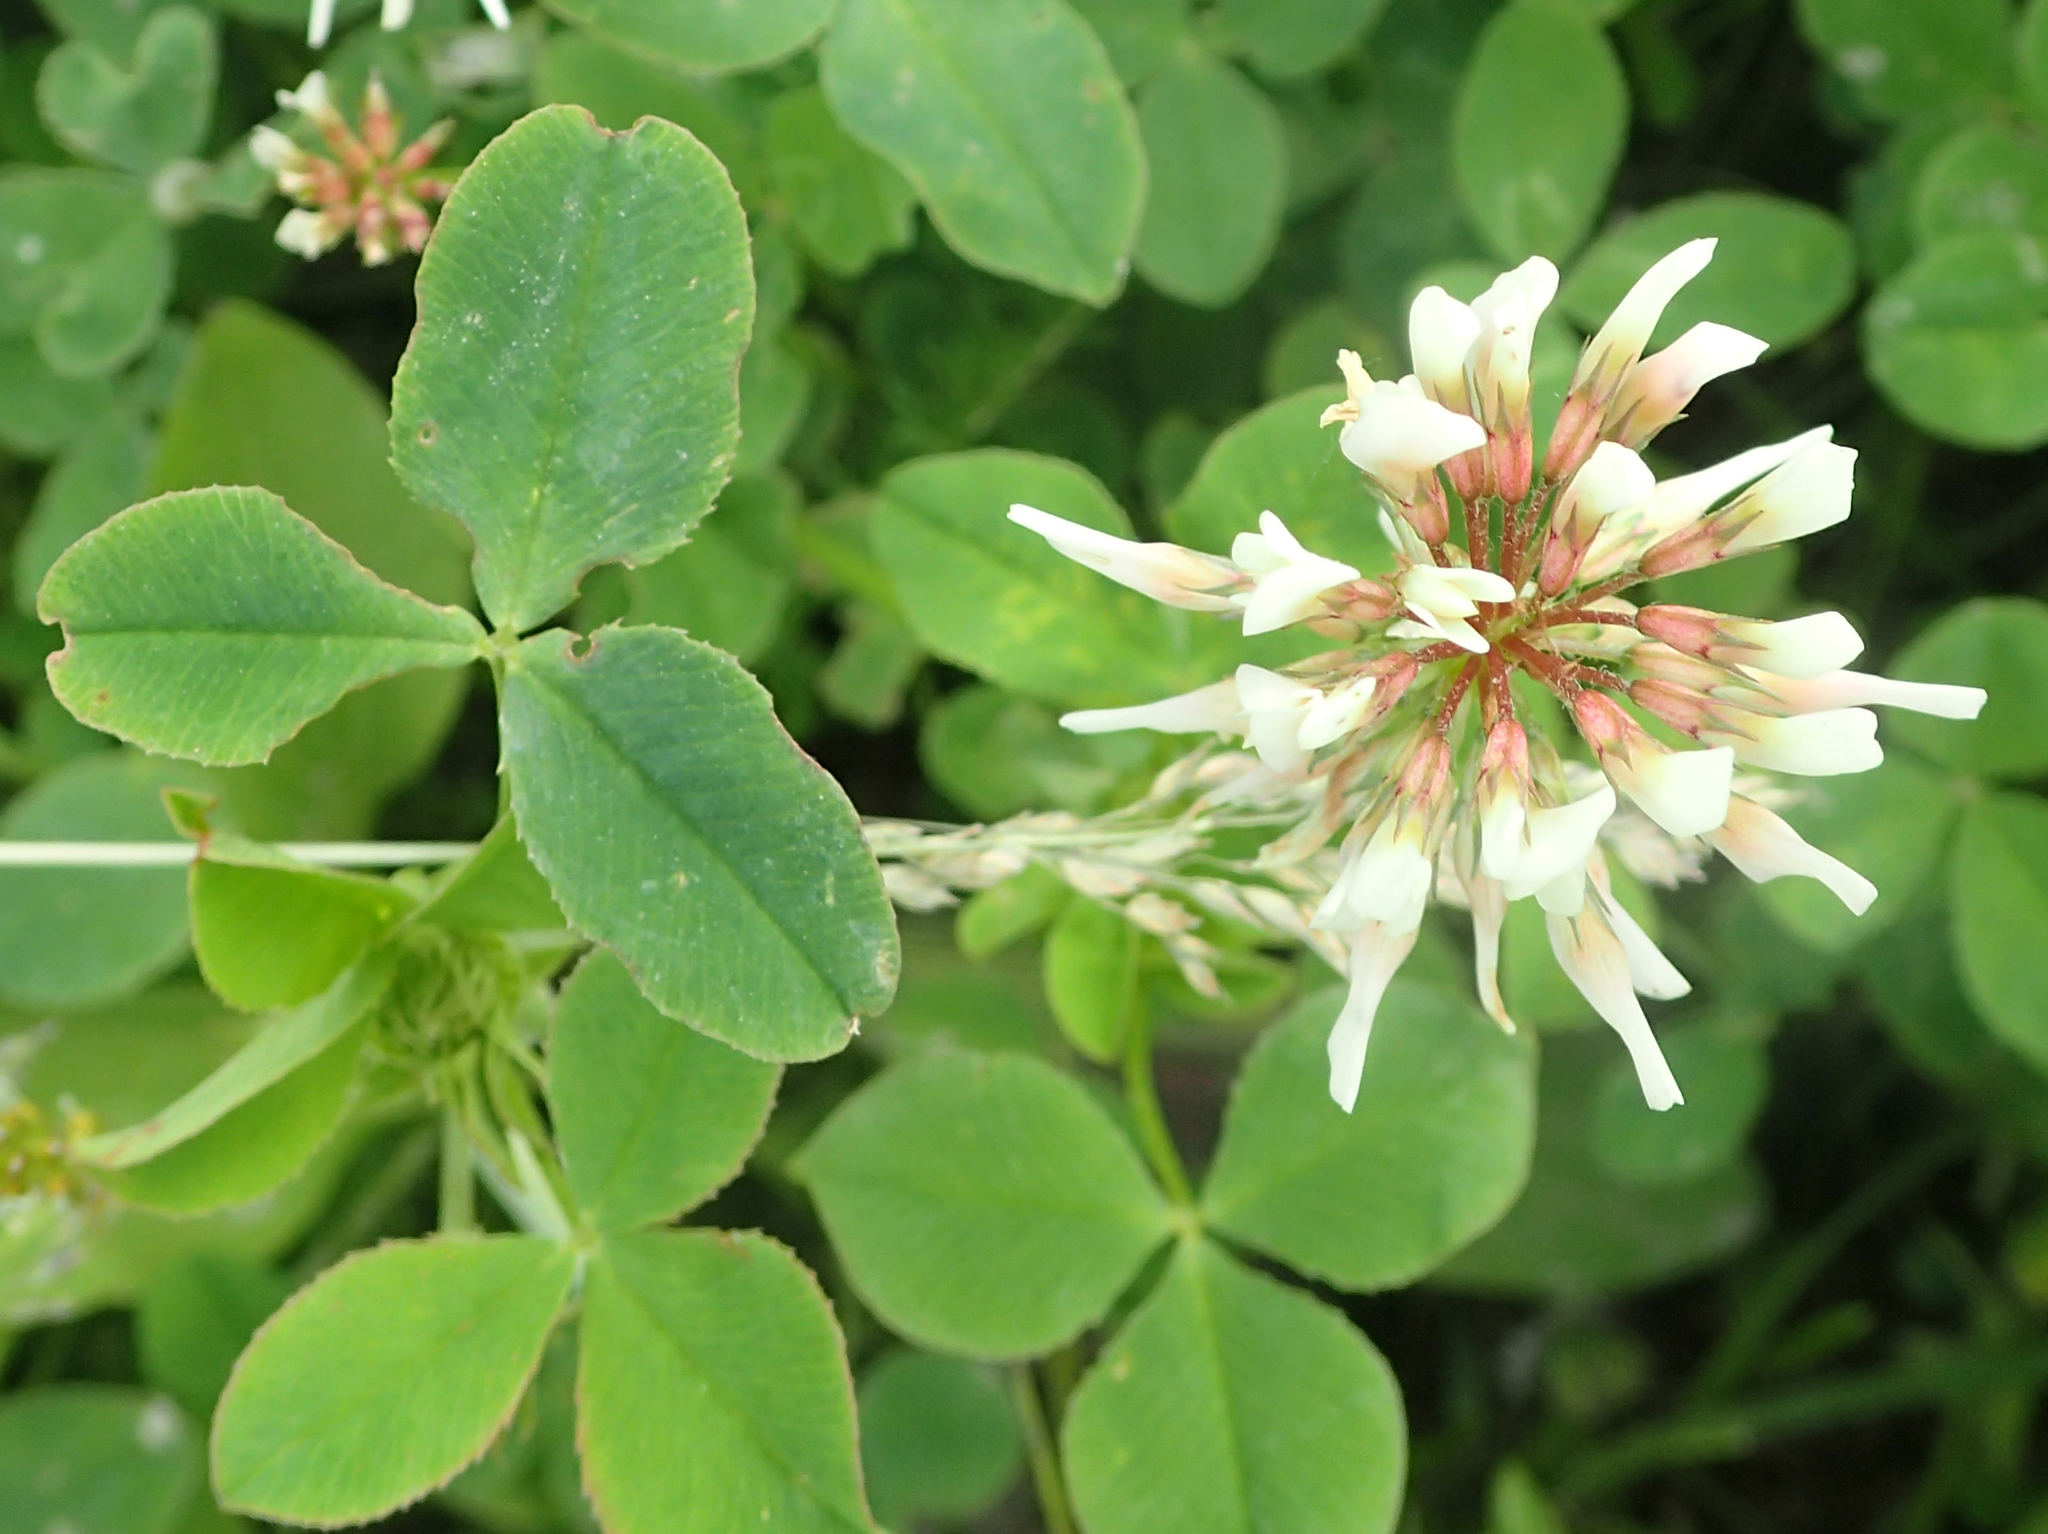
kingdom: Plantae
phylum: Tracheophyta
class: Magnoliopsida
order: Fabales
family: Fabaceae
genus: Trifolium
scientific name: Trifolium repens
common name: White clover
